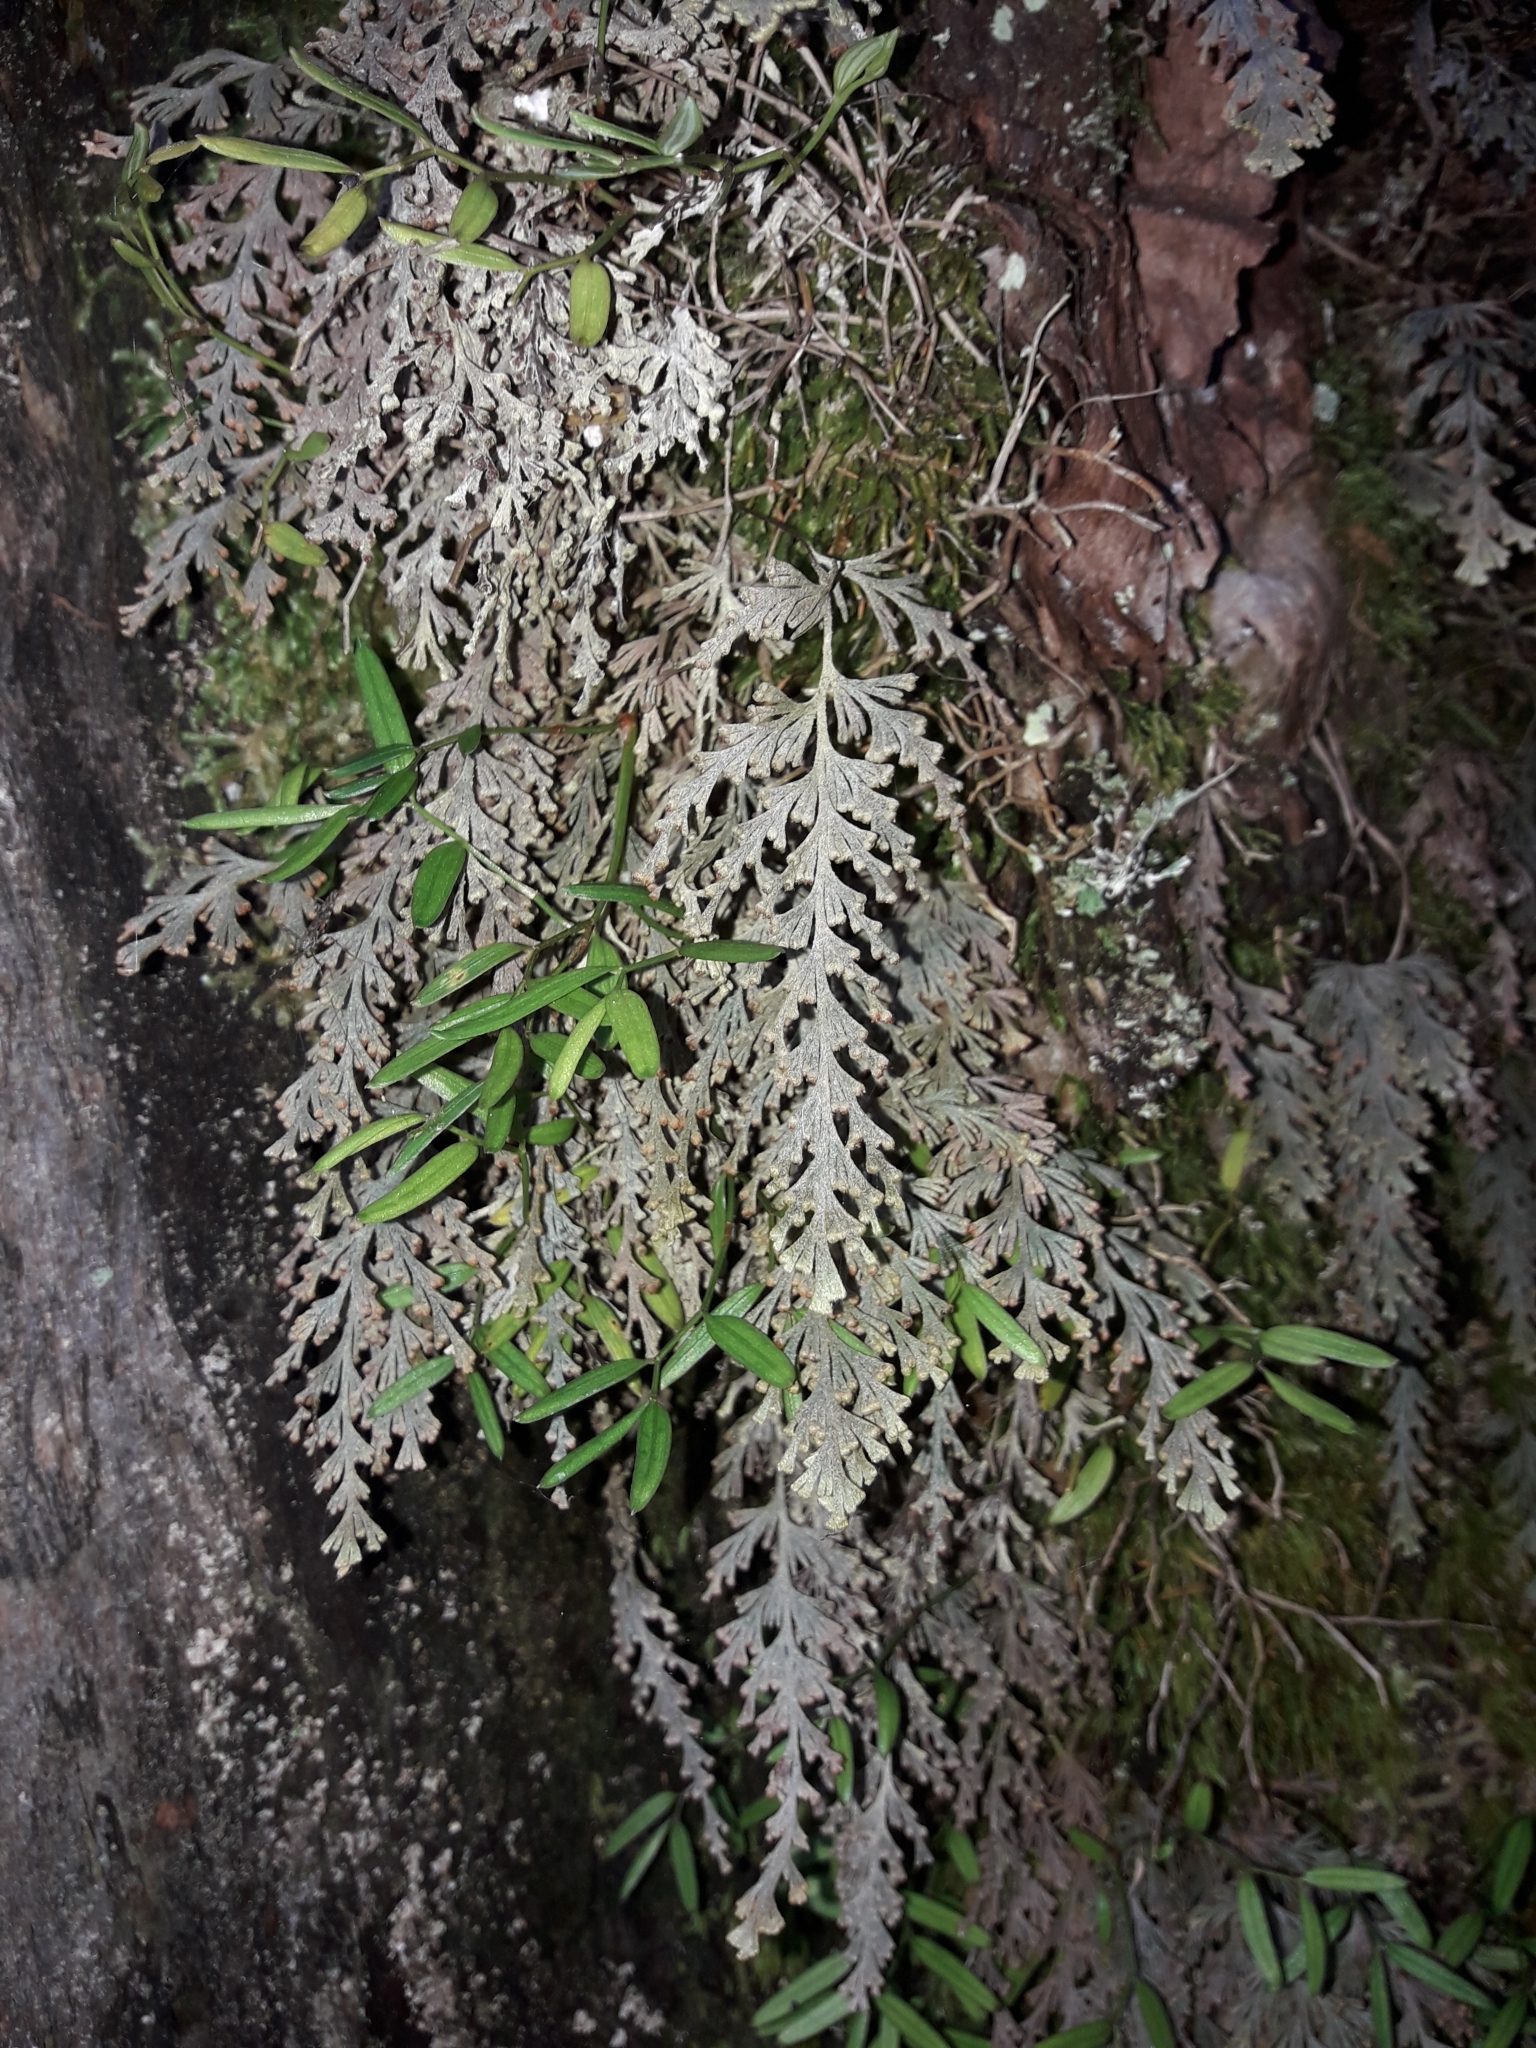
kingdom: Plantae
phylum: Tracheophyta
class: Polypodiopsida
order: Hymenophyllales
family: Hymenophyllaceae
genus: Hymenophyllum
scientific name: Hymenophyllum malingii
